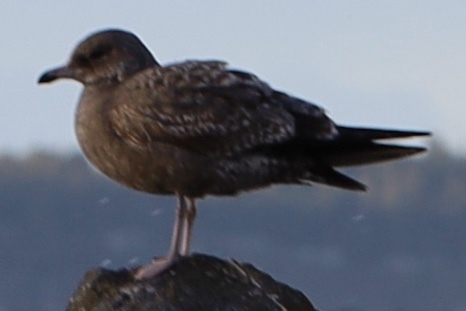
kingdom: Animalia
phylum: Chordata
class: Aves
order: Charadriiformes
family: Laridae
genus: Larus
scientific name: Larus californicus
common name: California gull
